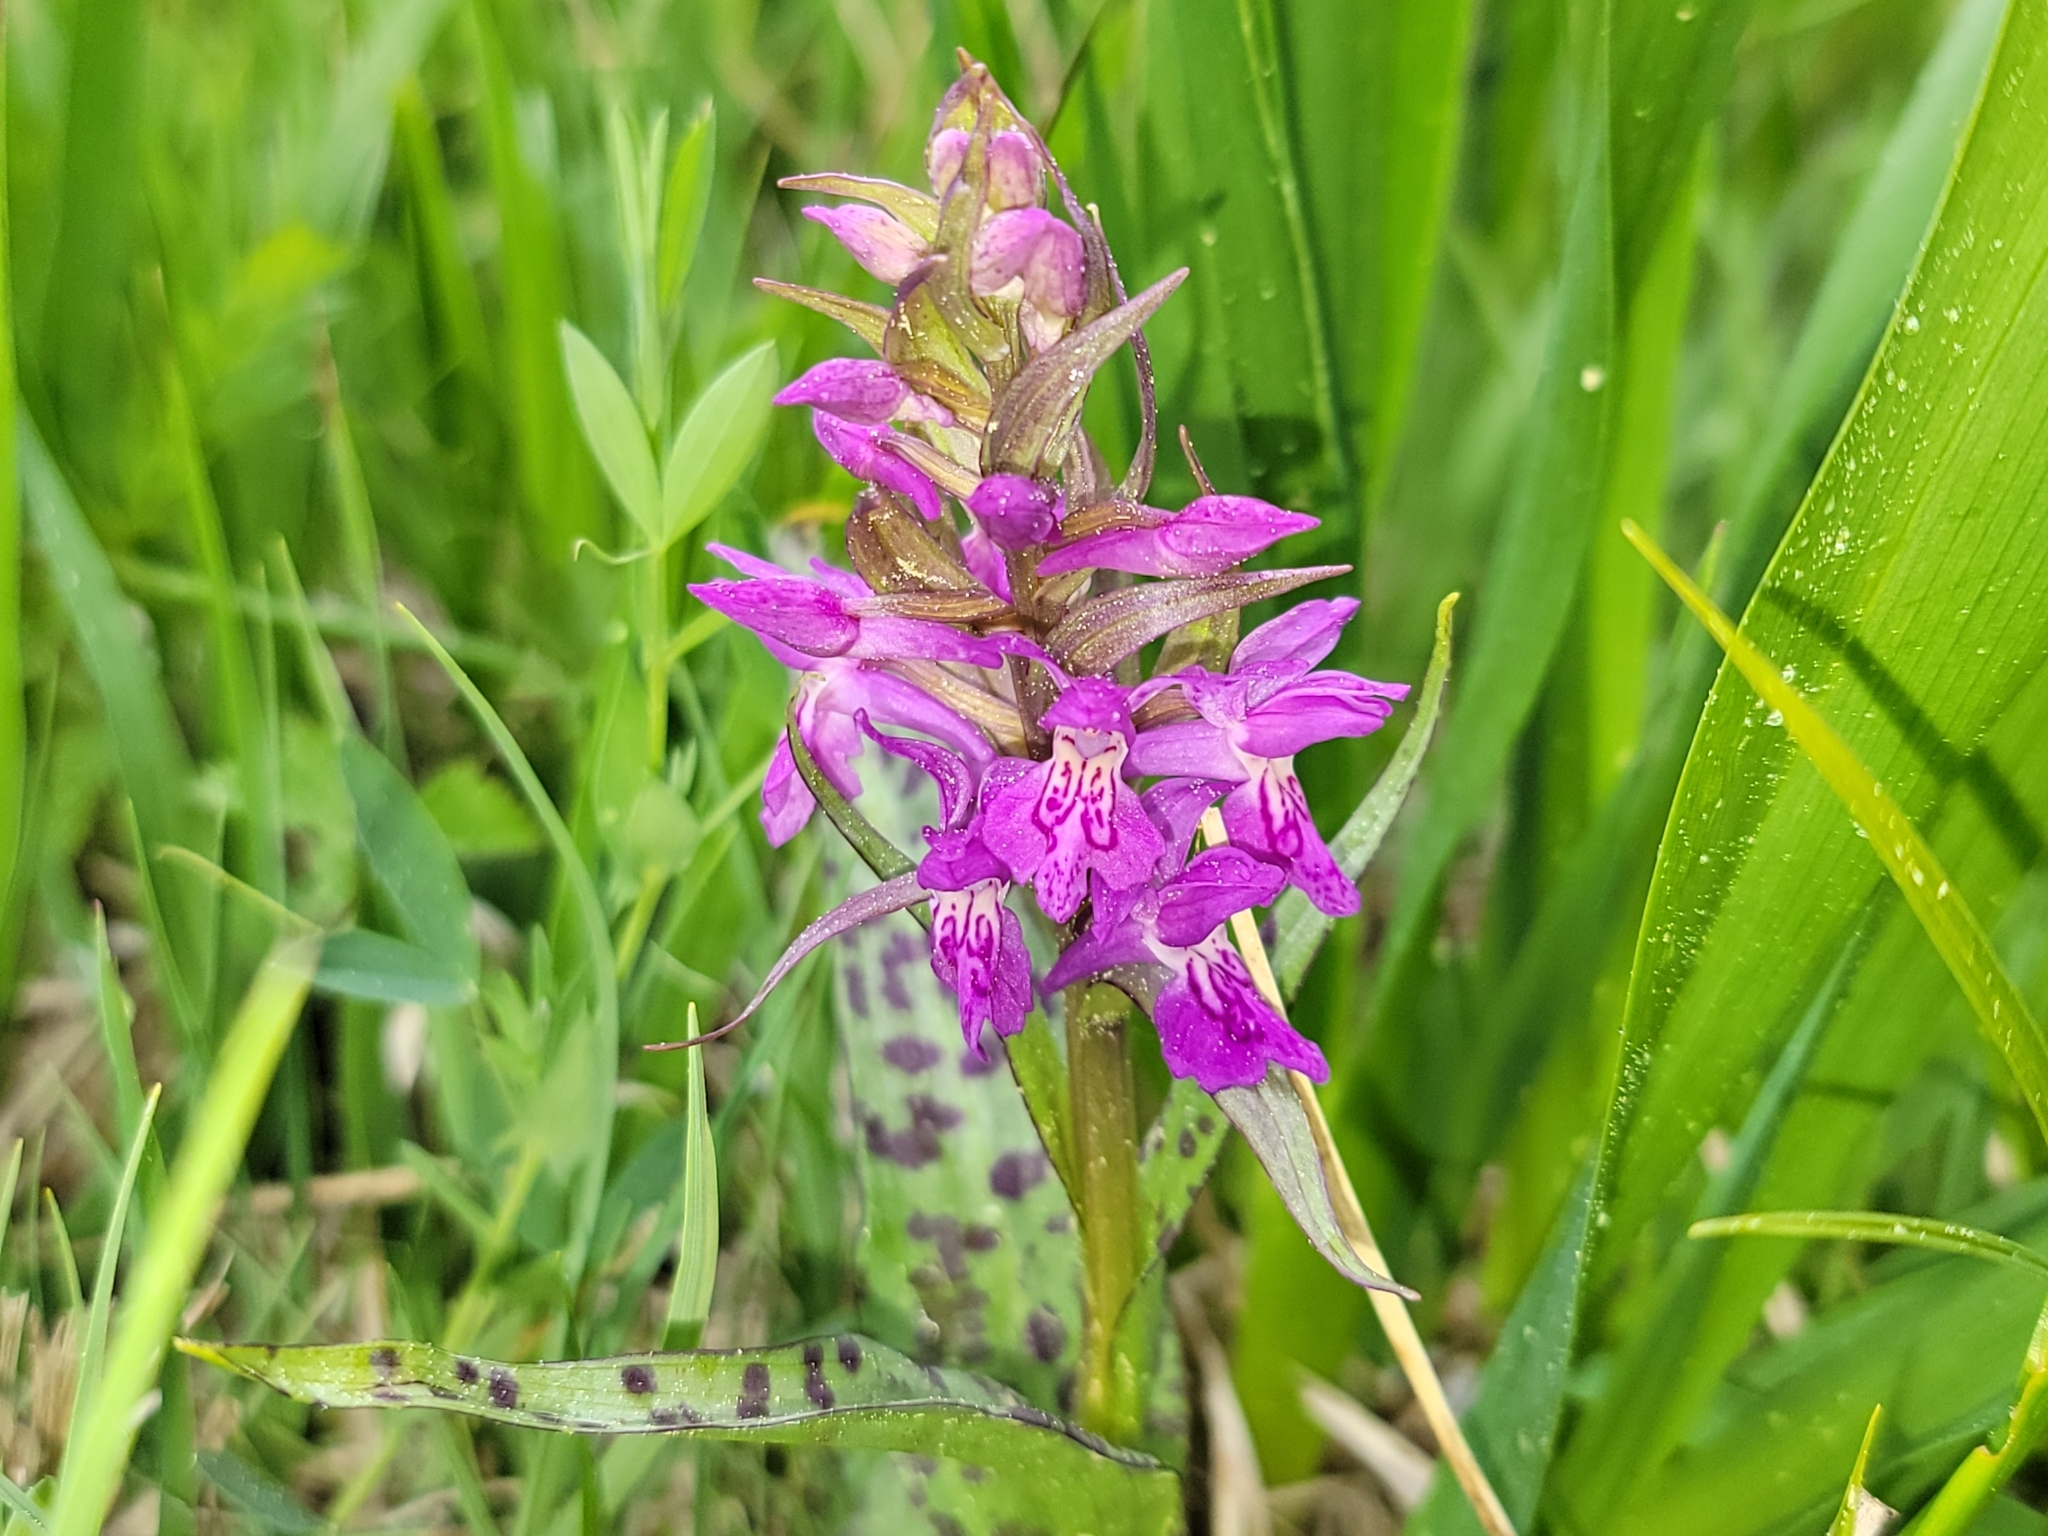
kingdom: Plantae
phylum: Tracheophyta
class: Liliopsida
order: Asparagales
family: Orchidaceae
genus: Dactylorhiza
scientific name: Dactylorhiza majalis
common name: Marsh orchid
